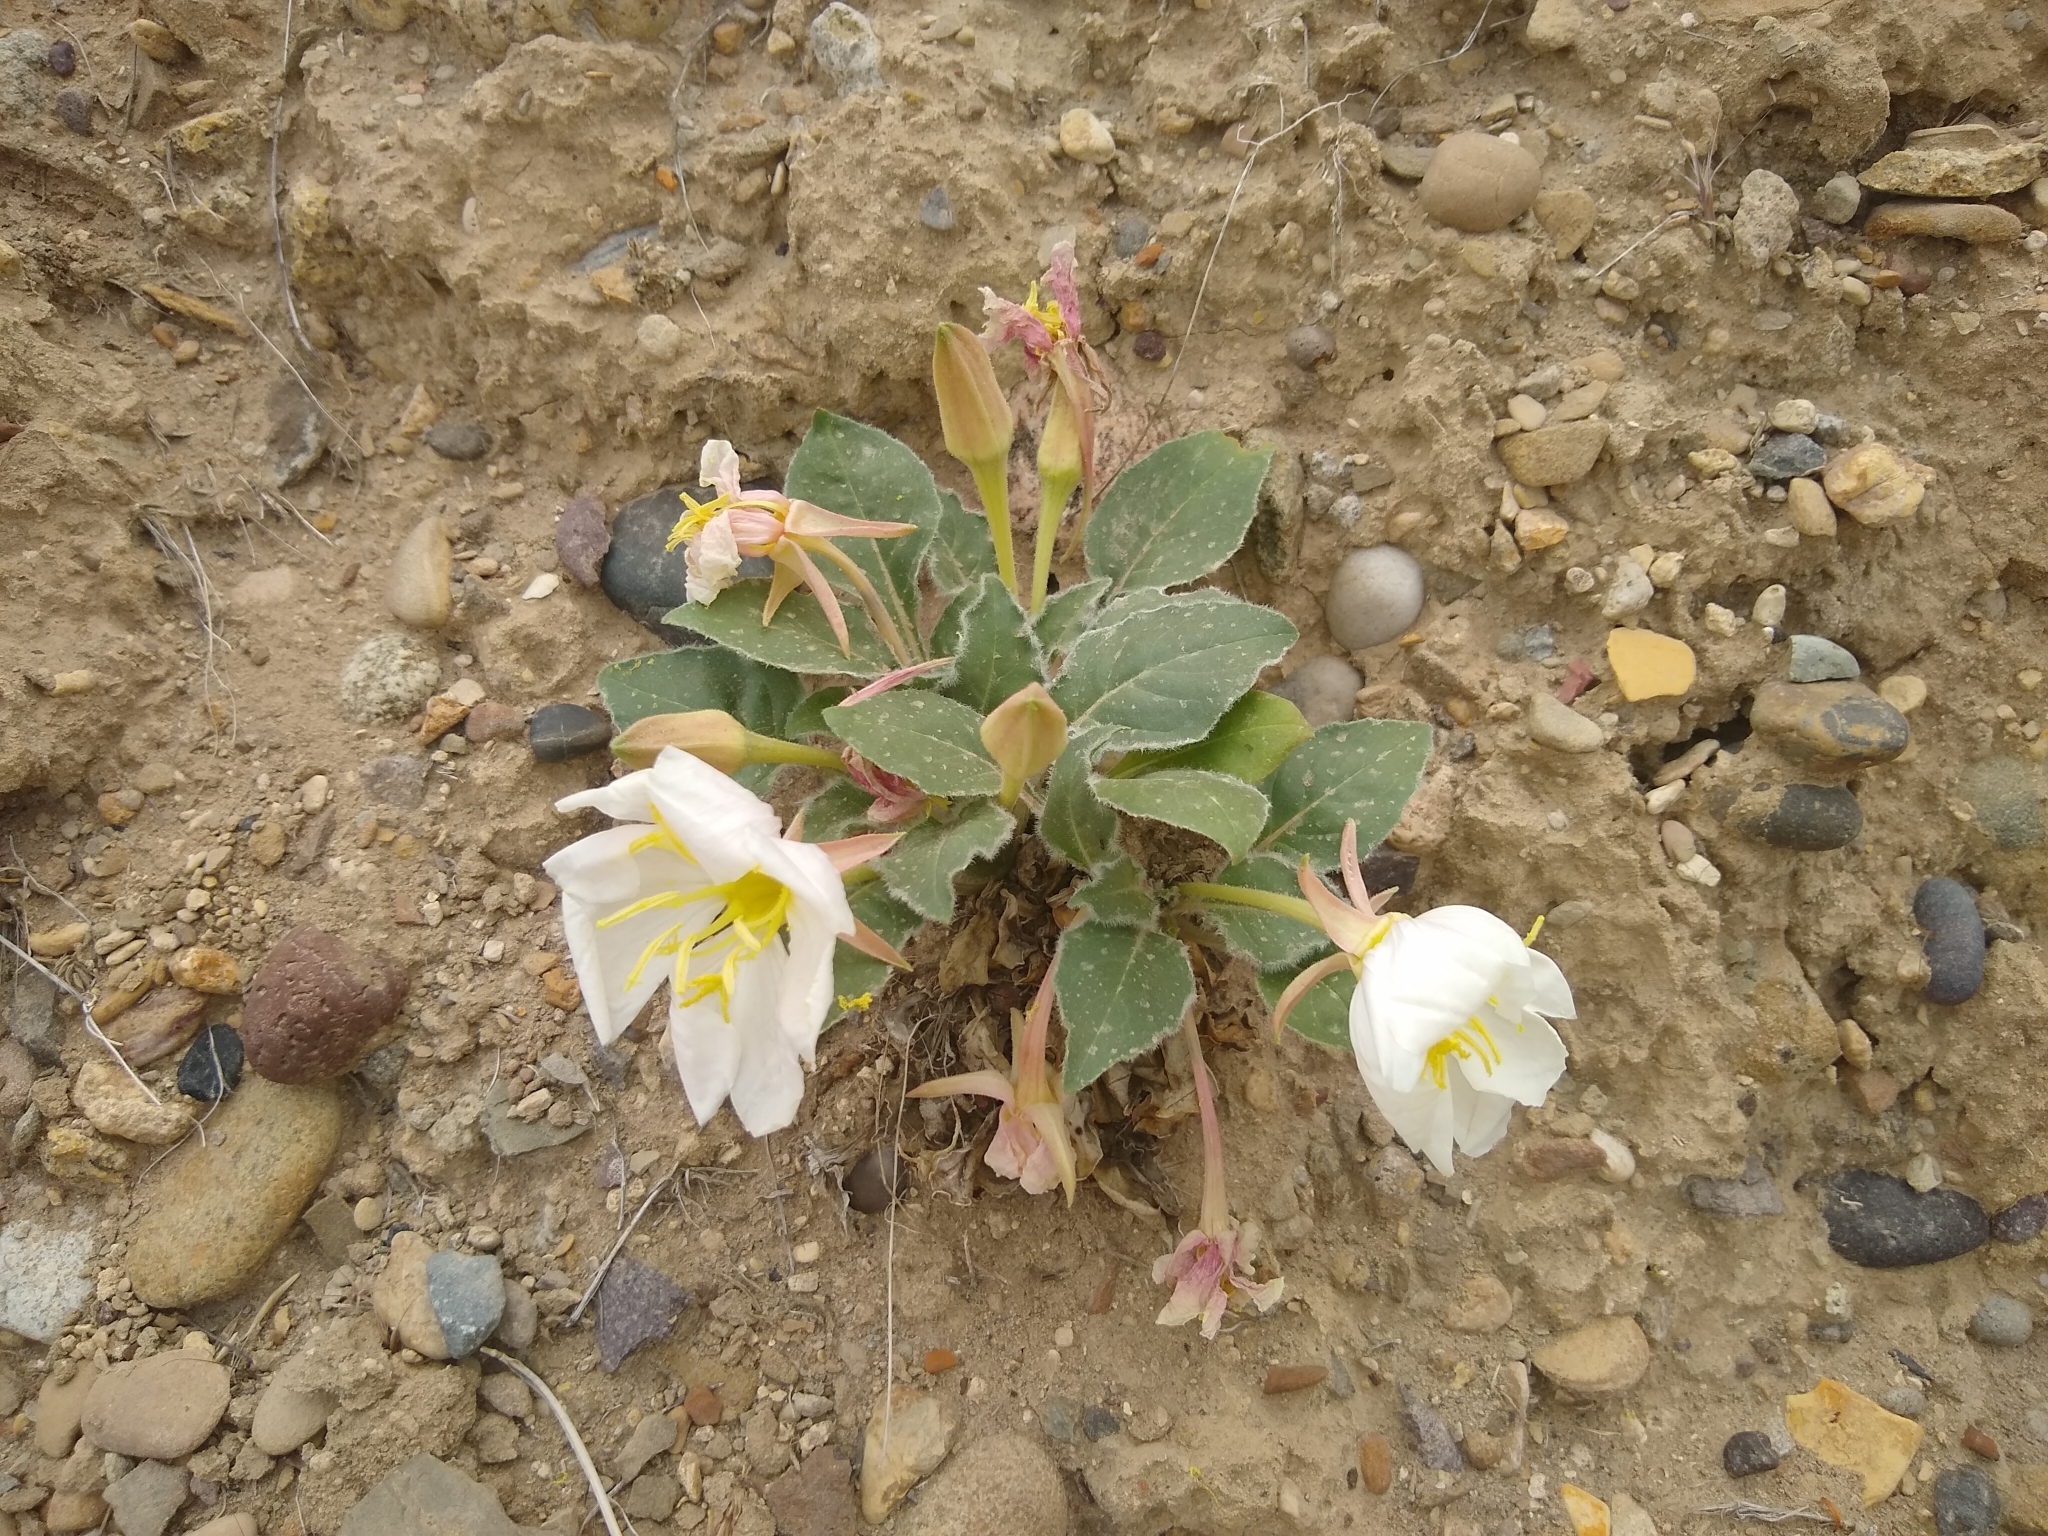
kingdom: Plantae
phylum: Tracheophyta
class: Magnoliopsida
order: Myrtales
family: Onagraceae
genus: Oenothera
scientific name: Oenothera cespitosa
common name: Tufted evening-primrose
